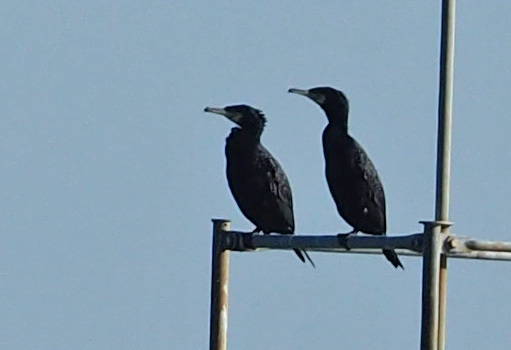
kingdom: Animalia
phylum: Chordata
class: Aves
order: Suliformes
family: Phalacrocoracidae
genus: Phalacrocorax
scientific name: Phalacrocorax carbo
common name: Great cormorant
